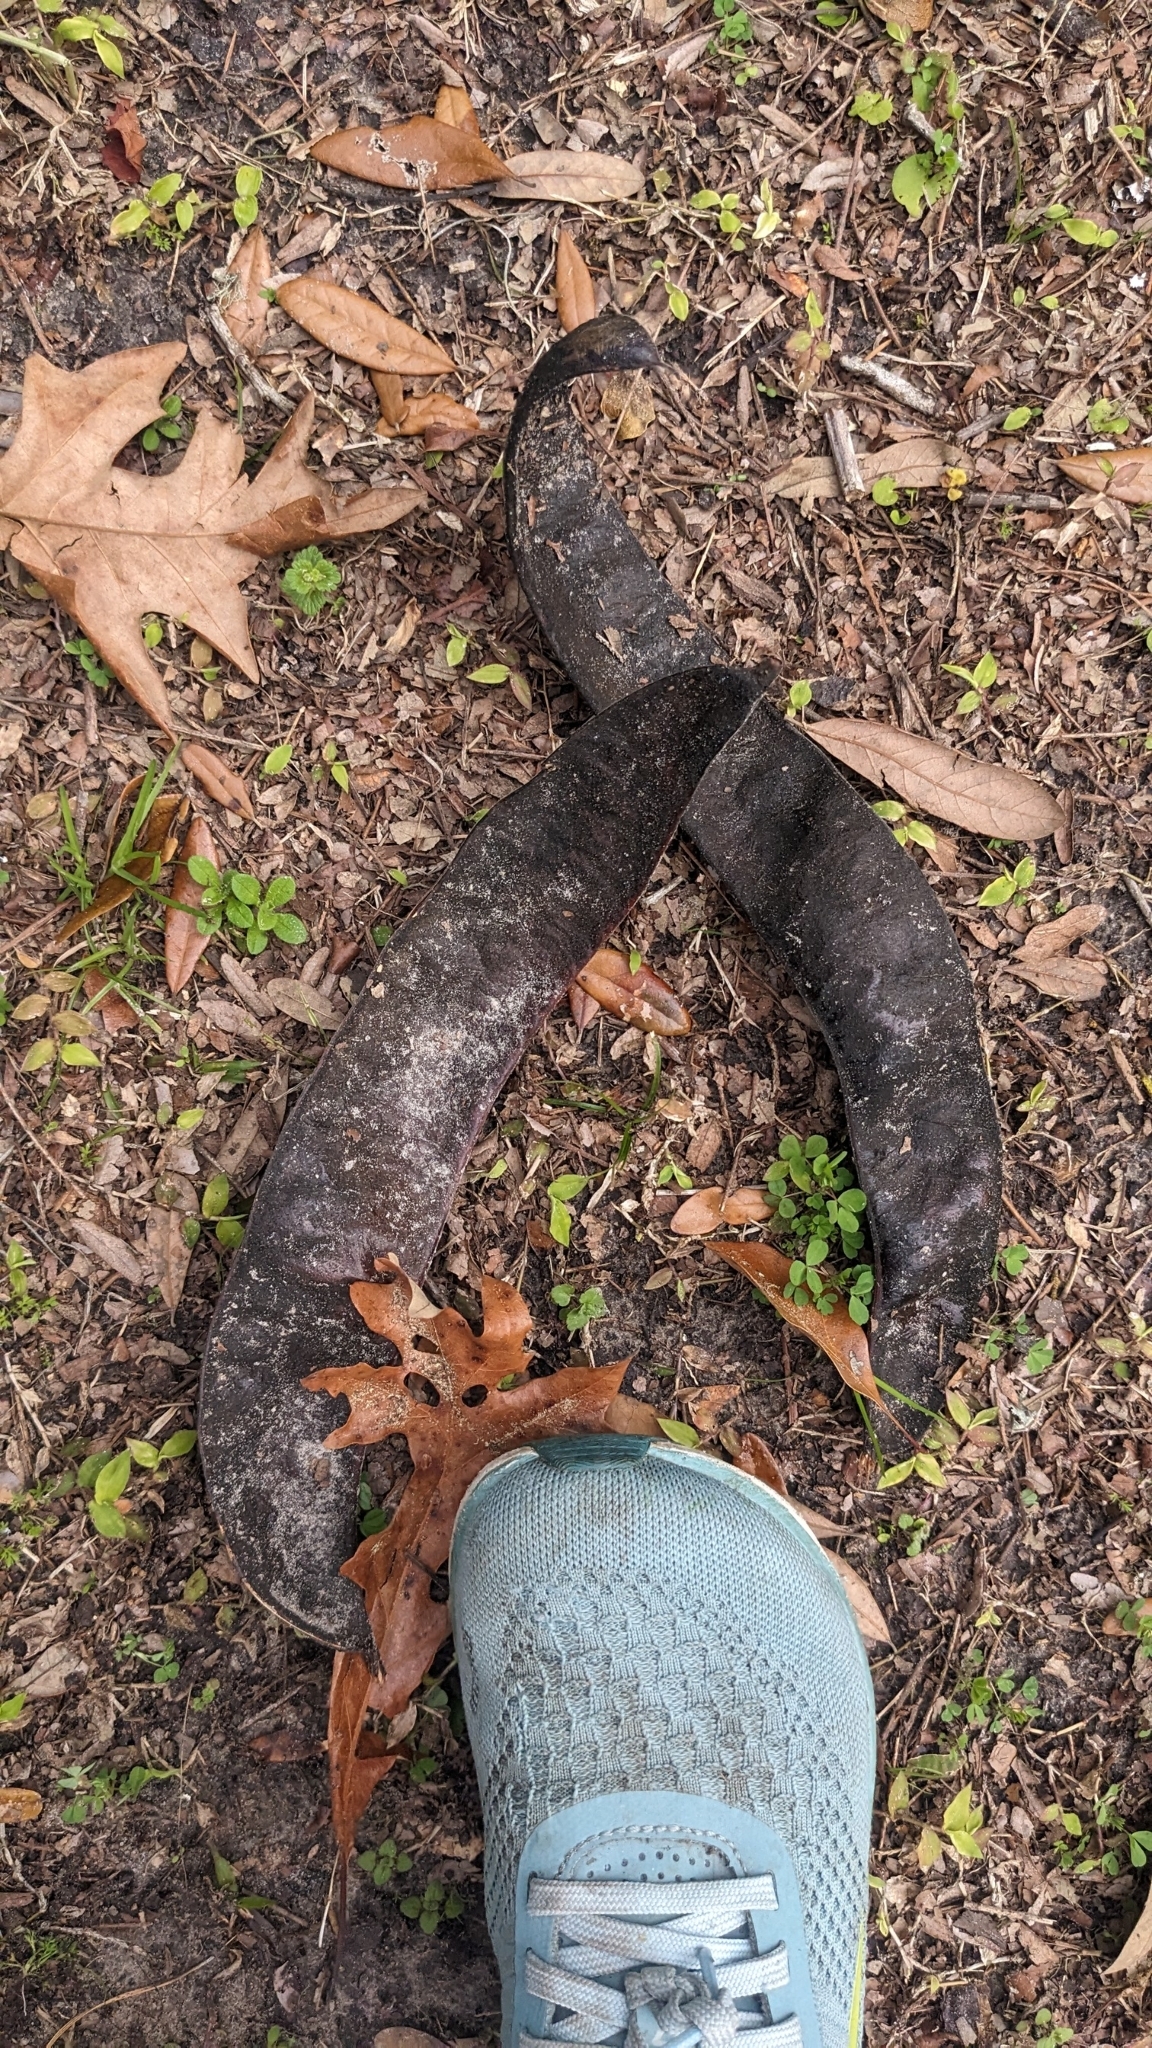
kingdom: Plantae
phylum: Tracheophyta
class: Magnoliopsida
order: Fabales
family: Fabaceae
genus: Gleditsia
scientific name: Gleditsia triacanthos
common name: Common honeylocust
